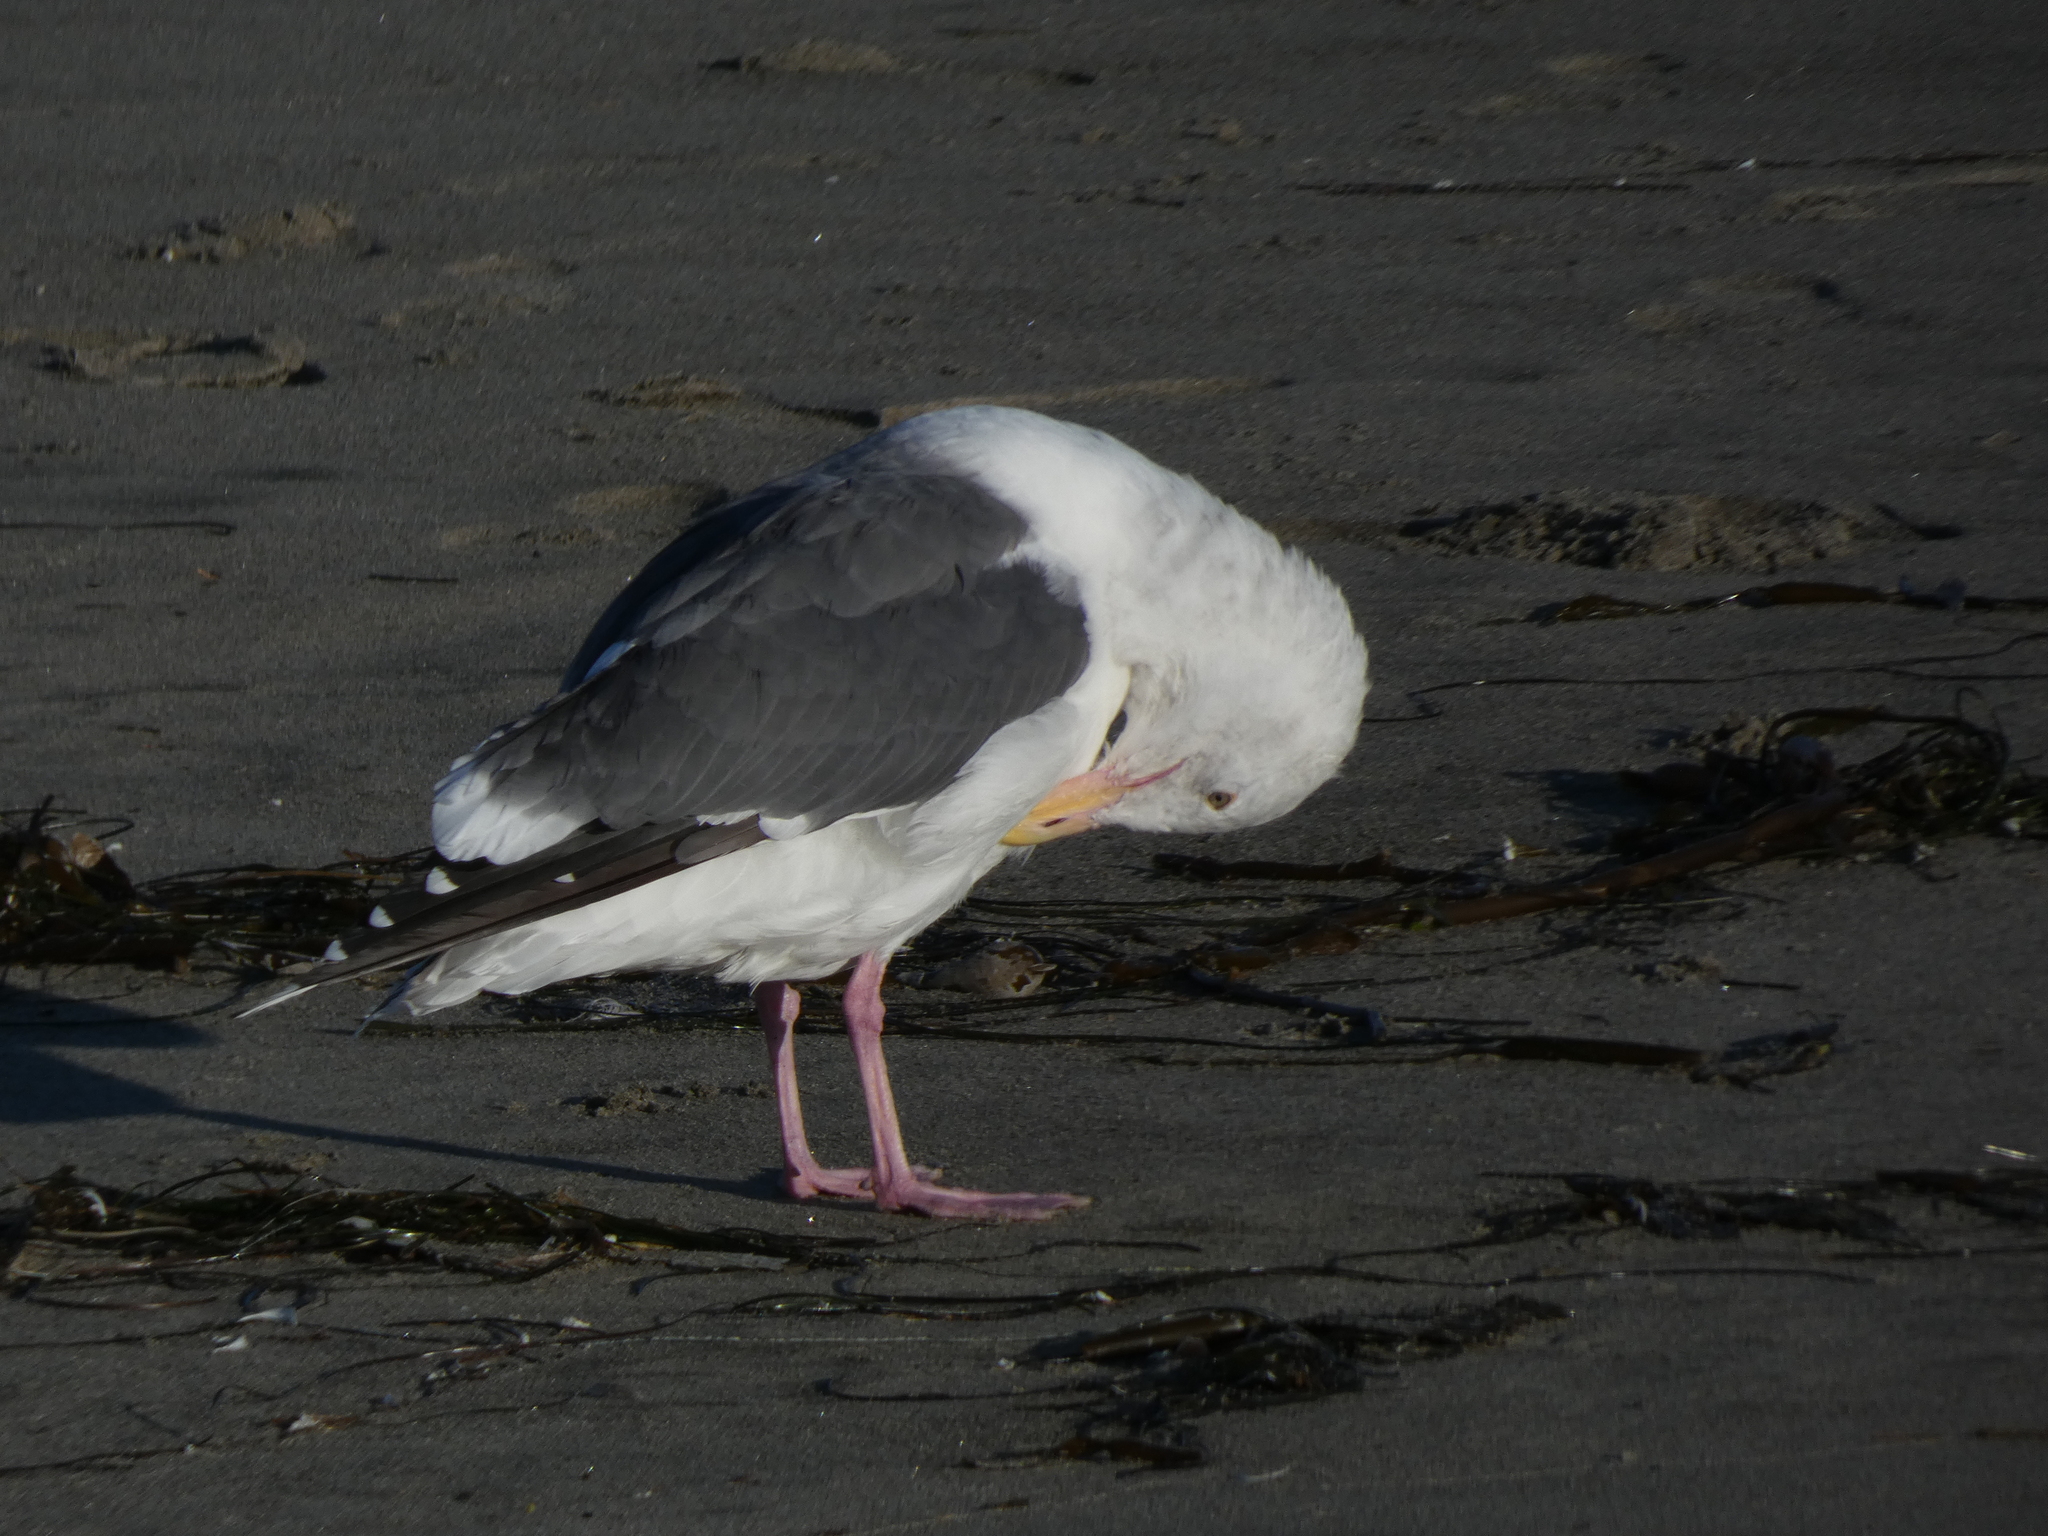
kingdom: Animalia
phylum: Chordata
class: Aves
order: Charadriiformes
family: Laridae
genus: Larus
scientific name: Larus occidentalis
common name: Western gull
